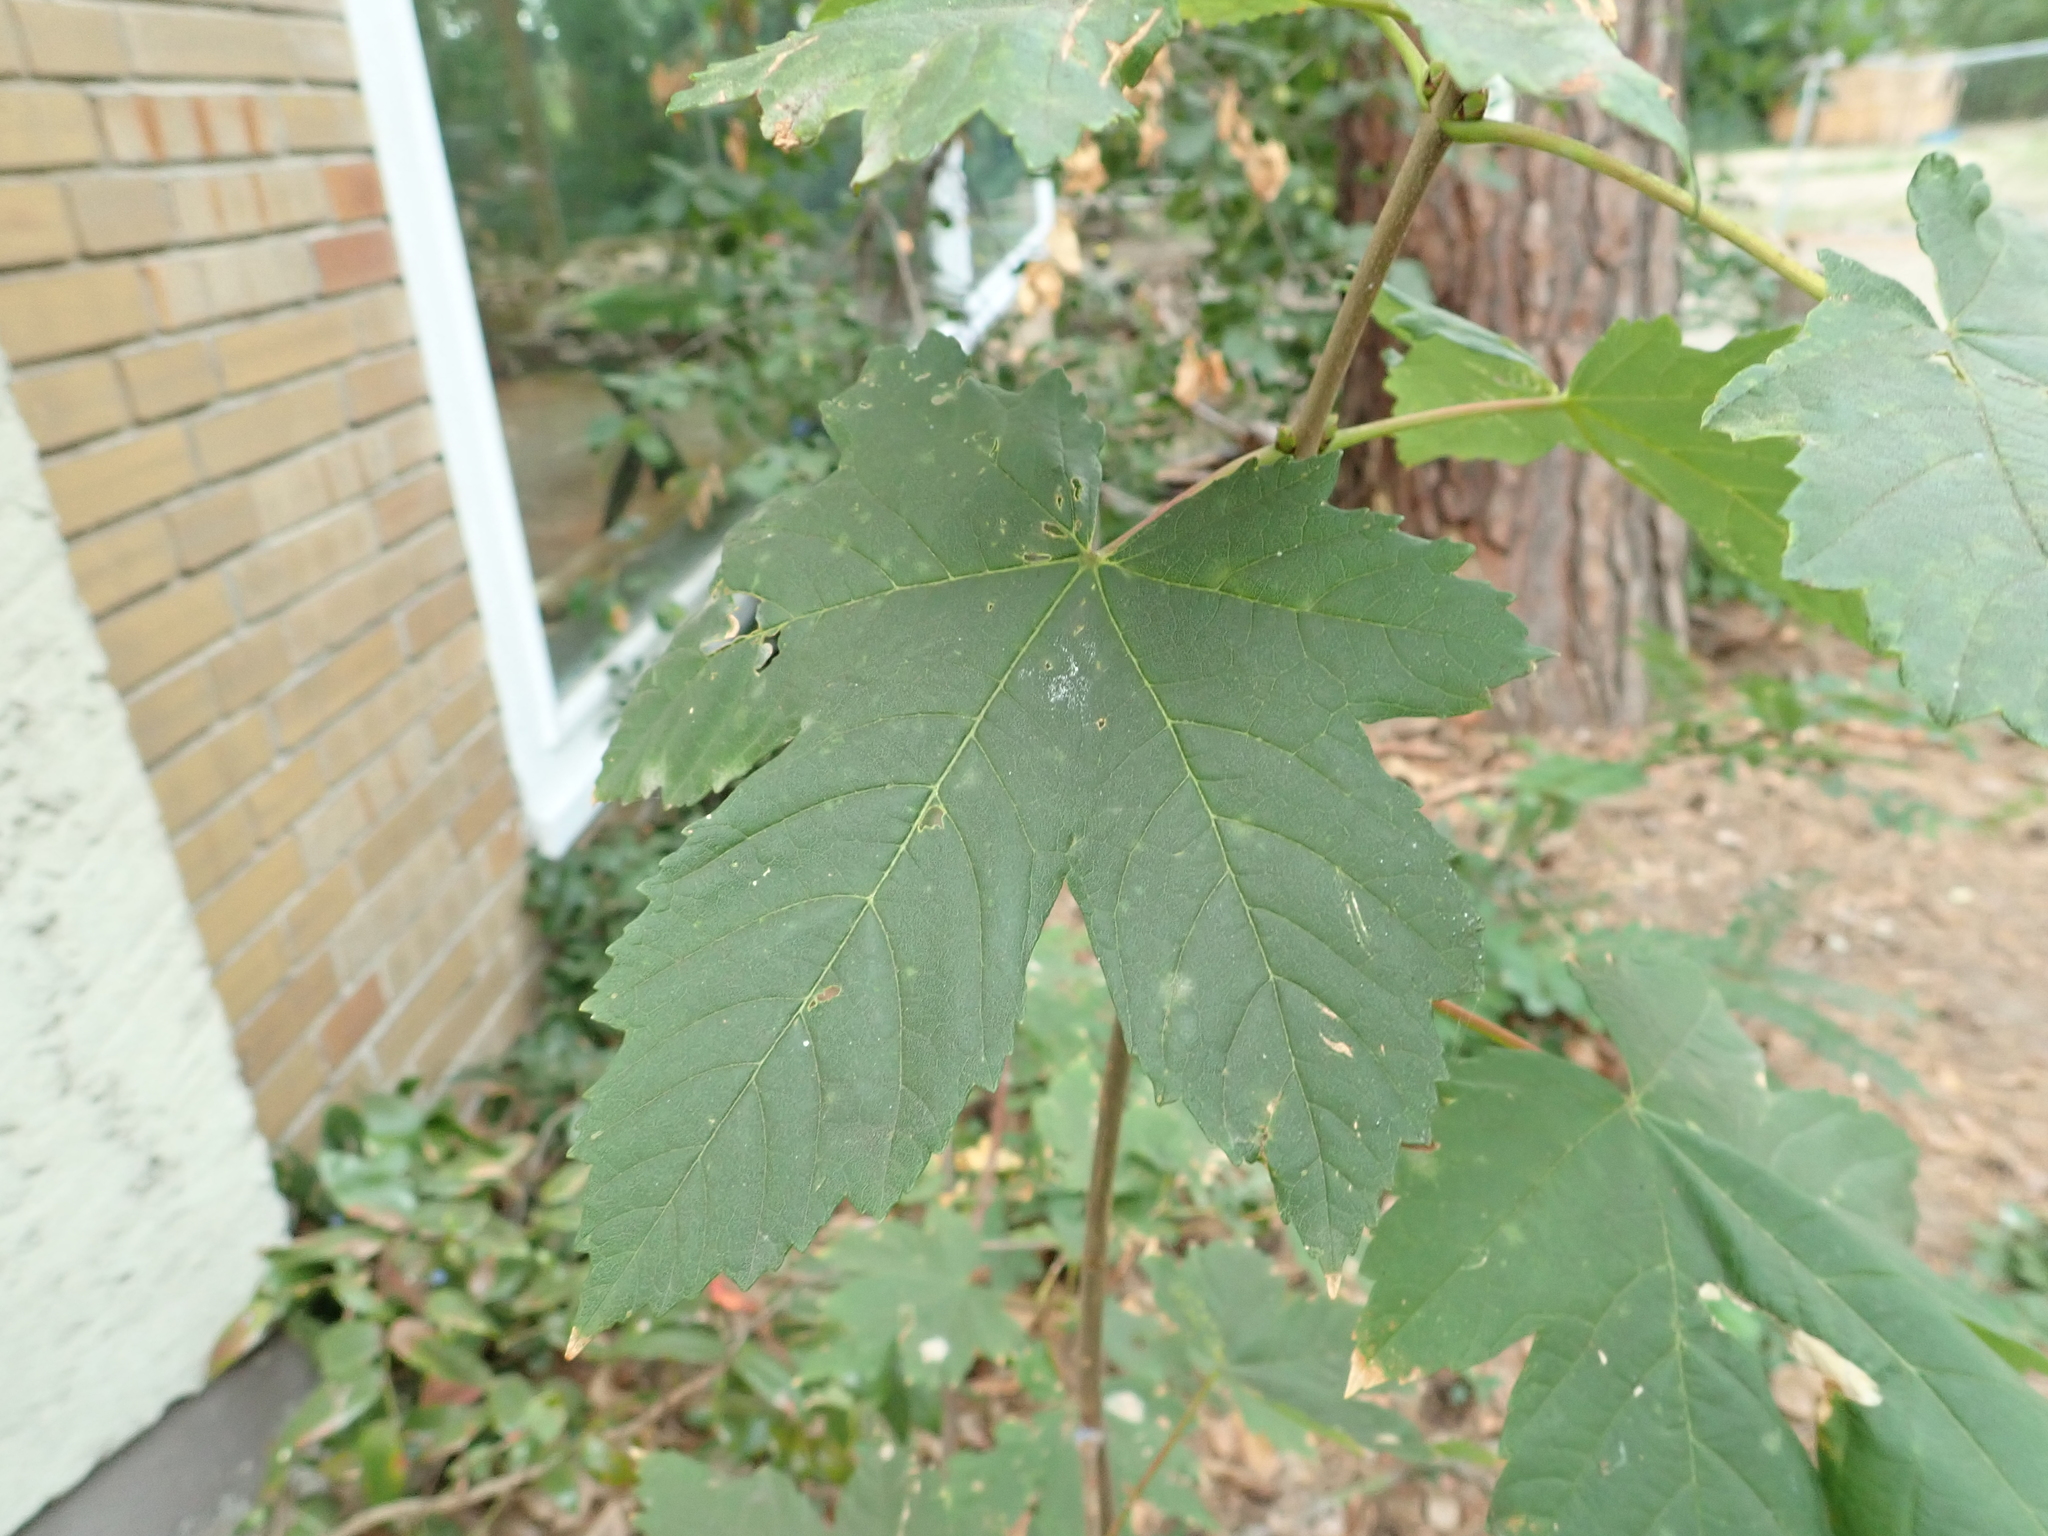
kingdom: Plantae
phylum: Tracheophyta
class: Magnoliopsida
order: Sapindales
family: Sapindaceae
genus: Acer
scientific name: Acer pseudoplatanus
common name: Sycamore
